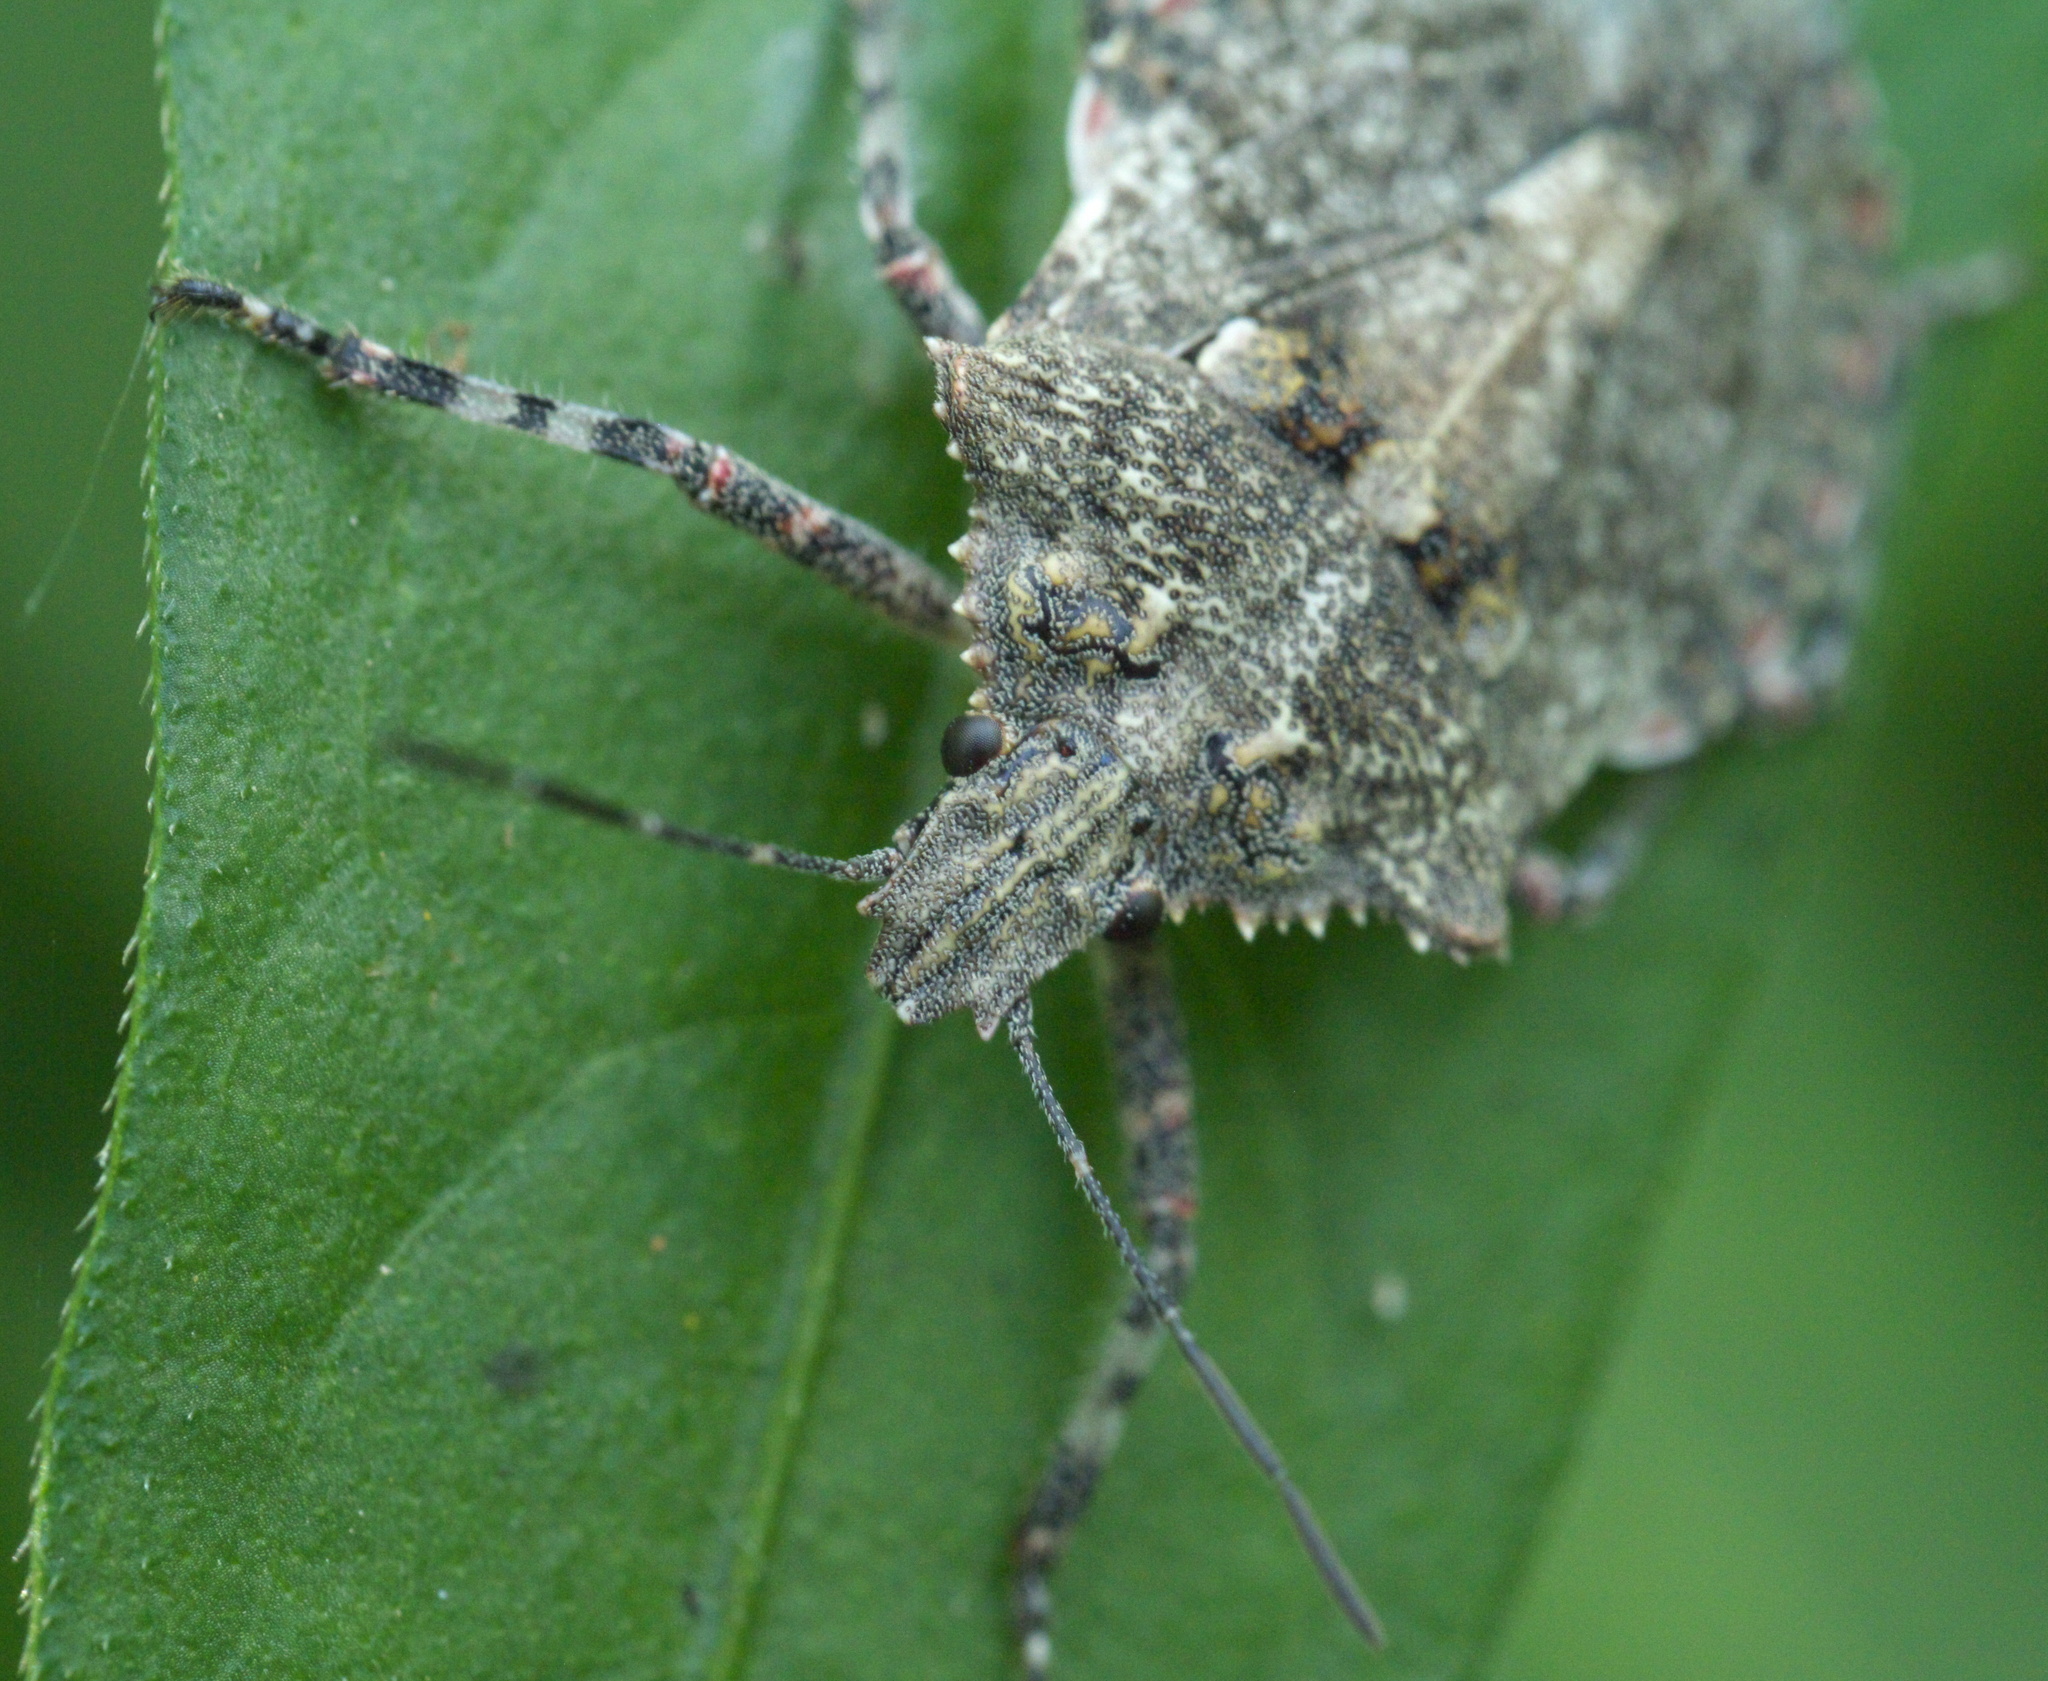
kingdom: Animalia
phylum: Arthropoda
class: Insecta
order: Hemiptera
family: Pentatomidae
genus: Brochymena
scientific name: Brochymena arborea
